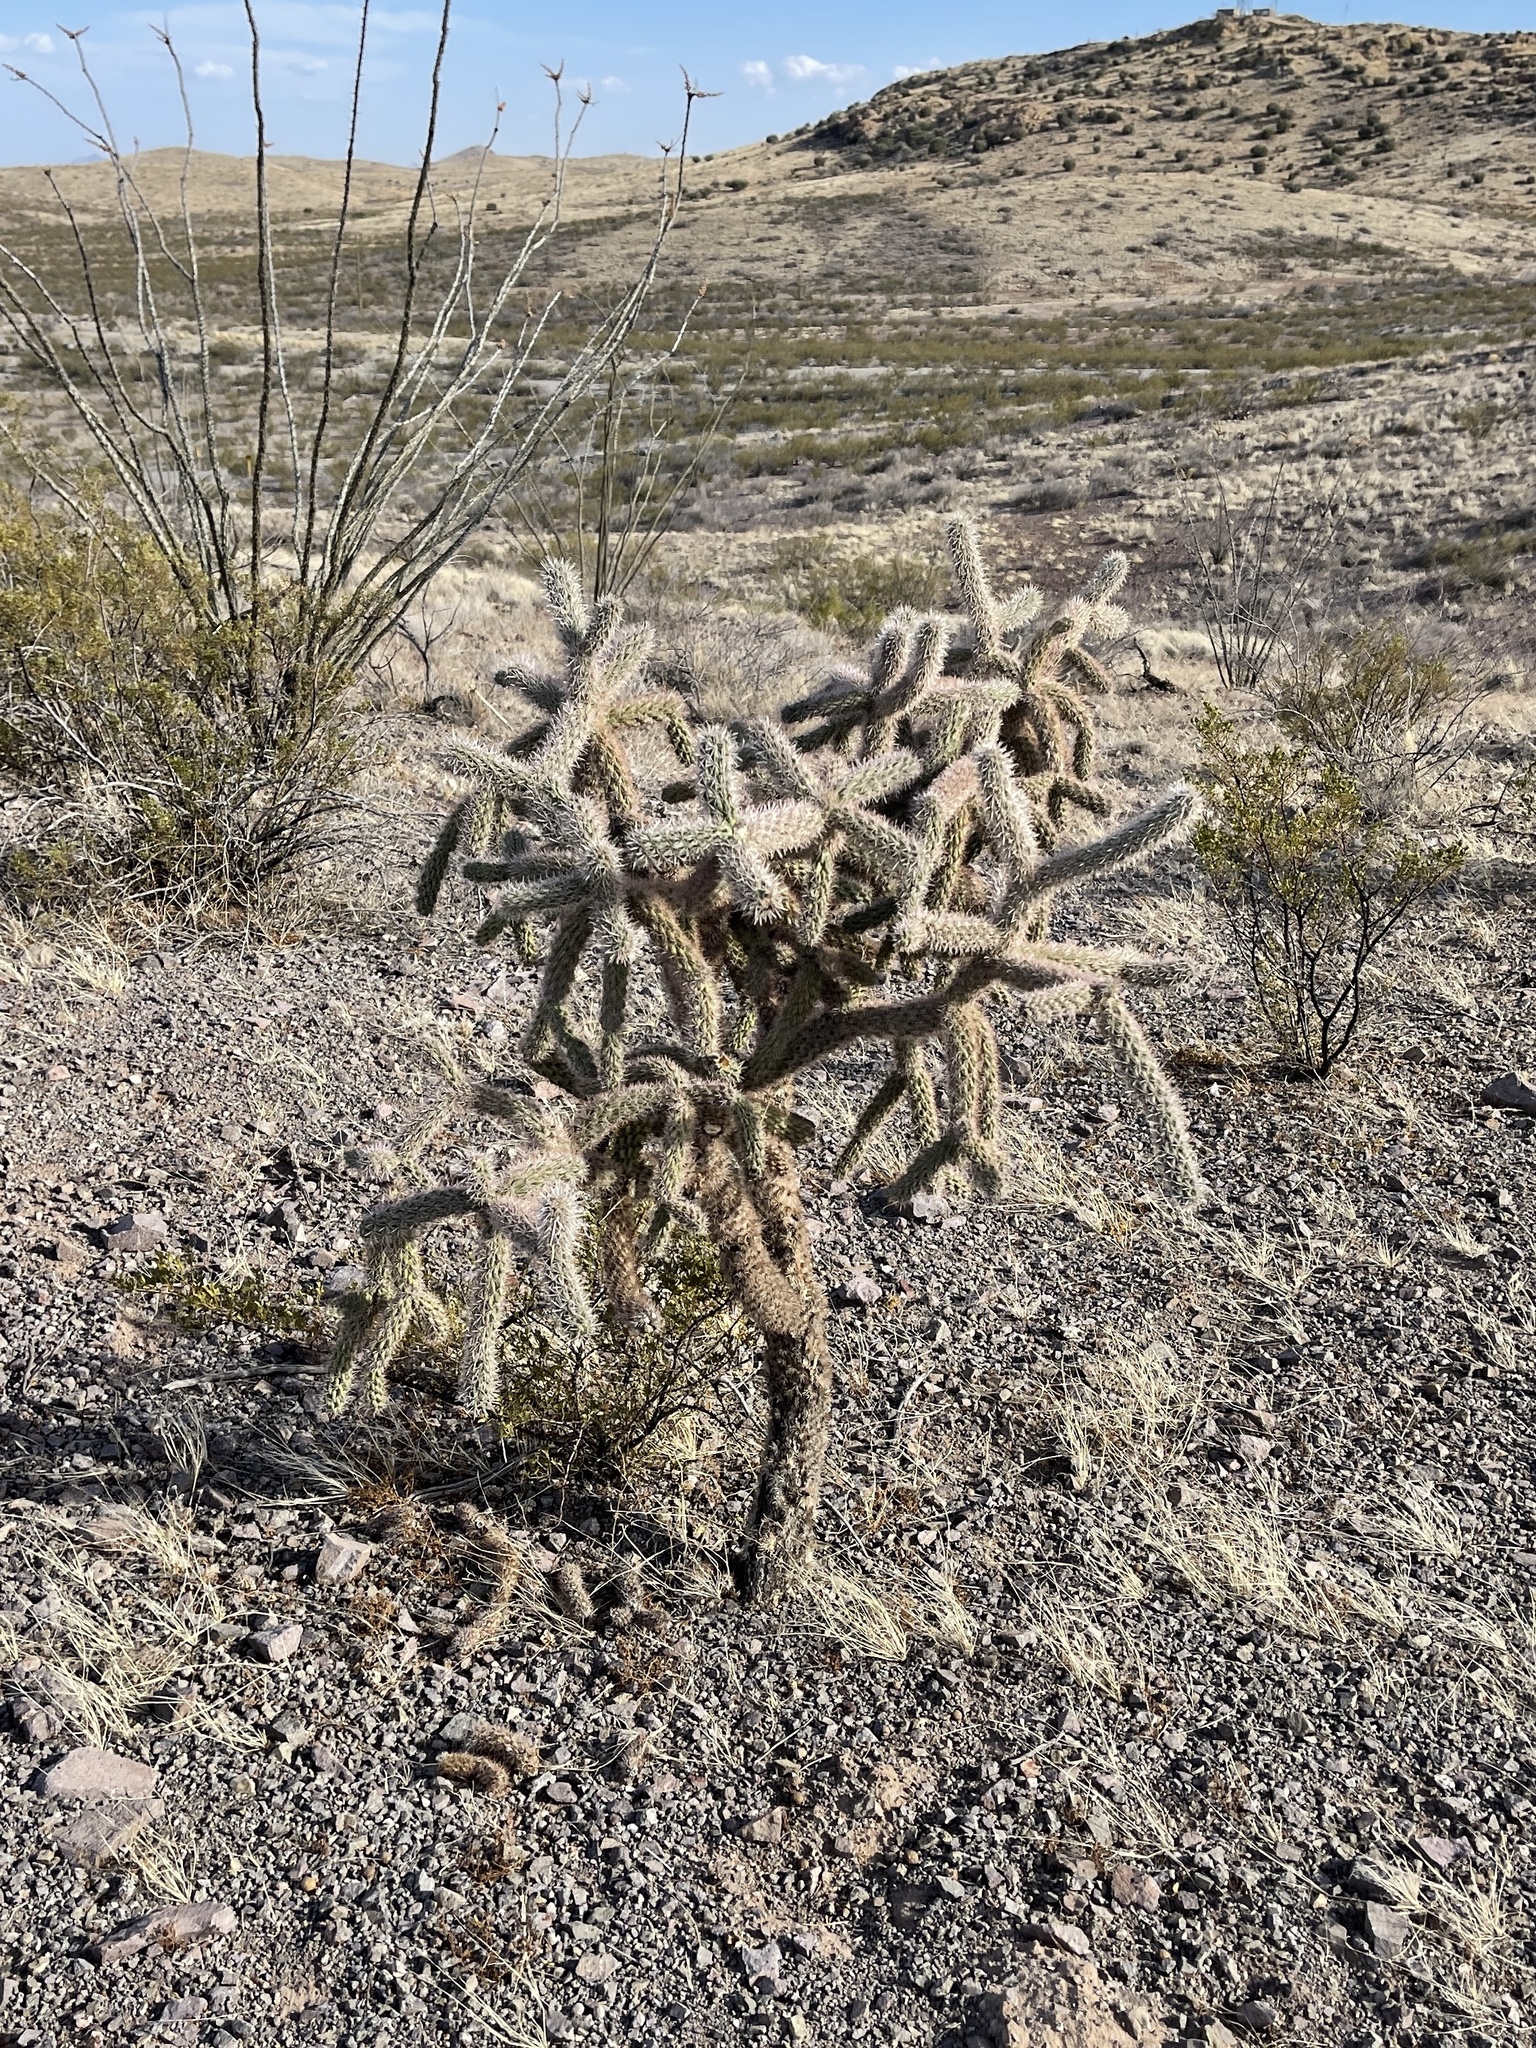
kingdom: Plantae
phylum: Tracheophyta
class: Magnoliopsida
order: Caryophyllales
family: Cactaceae
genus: Cylindropuntia
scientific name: Cylindropuntia imbricata
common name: Candelabrum cactus
